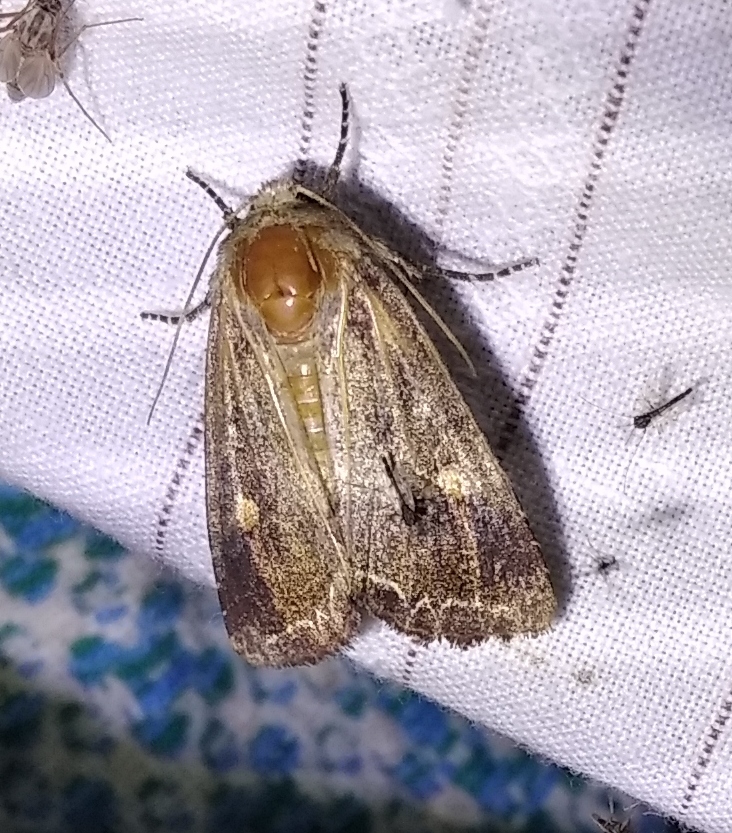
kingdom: Animalia
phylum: Arthropoda
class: Insecta
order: Lepidoptera
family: Noctuidae
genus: Lacanobia
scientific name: Lacanobia oleracea
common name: Bright-line brown-eye
